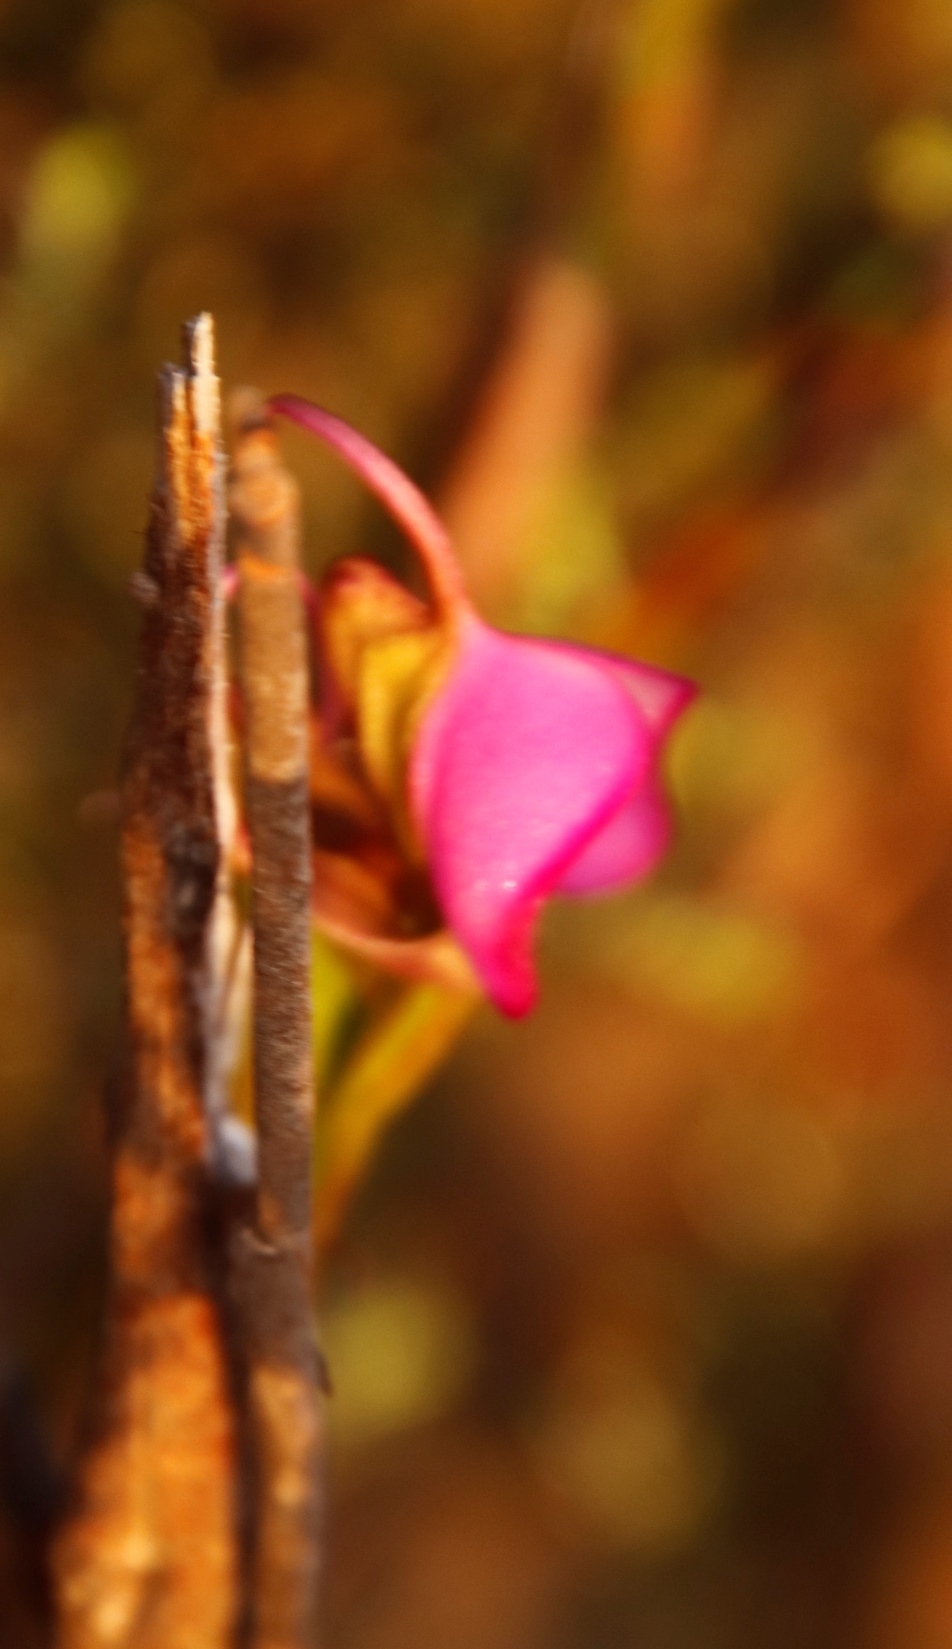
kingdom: Plantae
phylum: Tracheophyta
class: Liliopsida
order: Asparagales
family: Orchidaceae
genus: Disperis
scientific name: Disperis capensis
